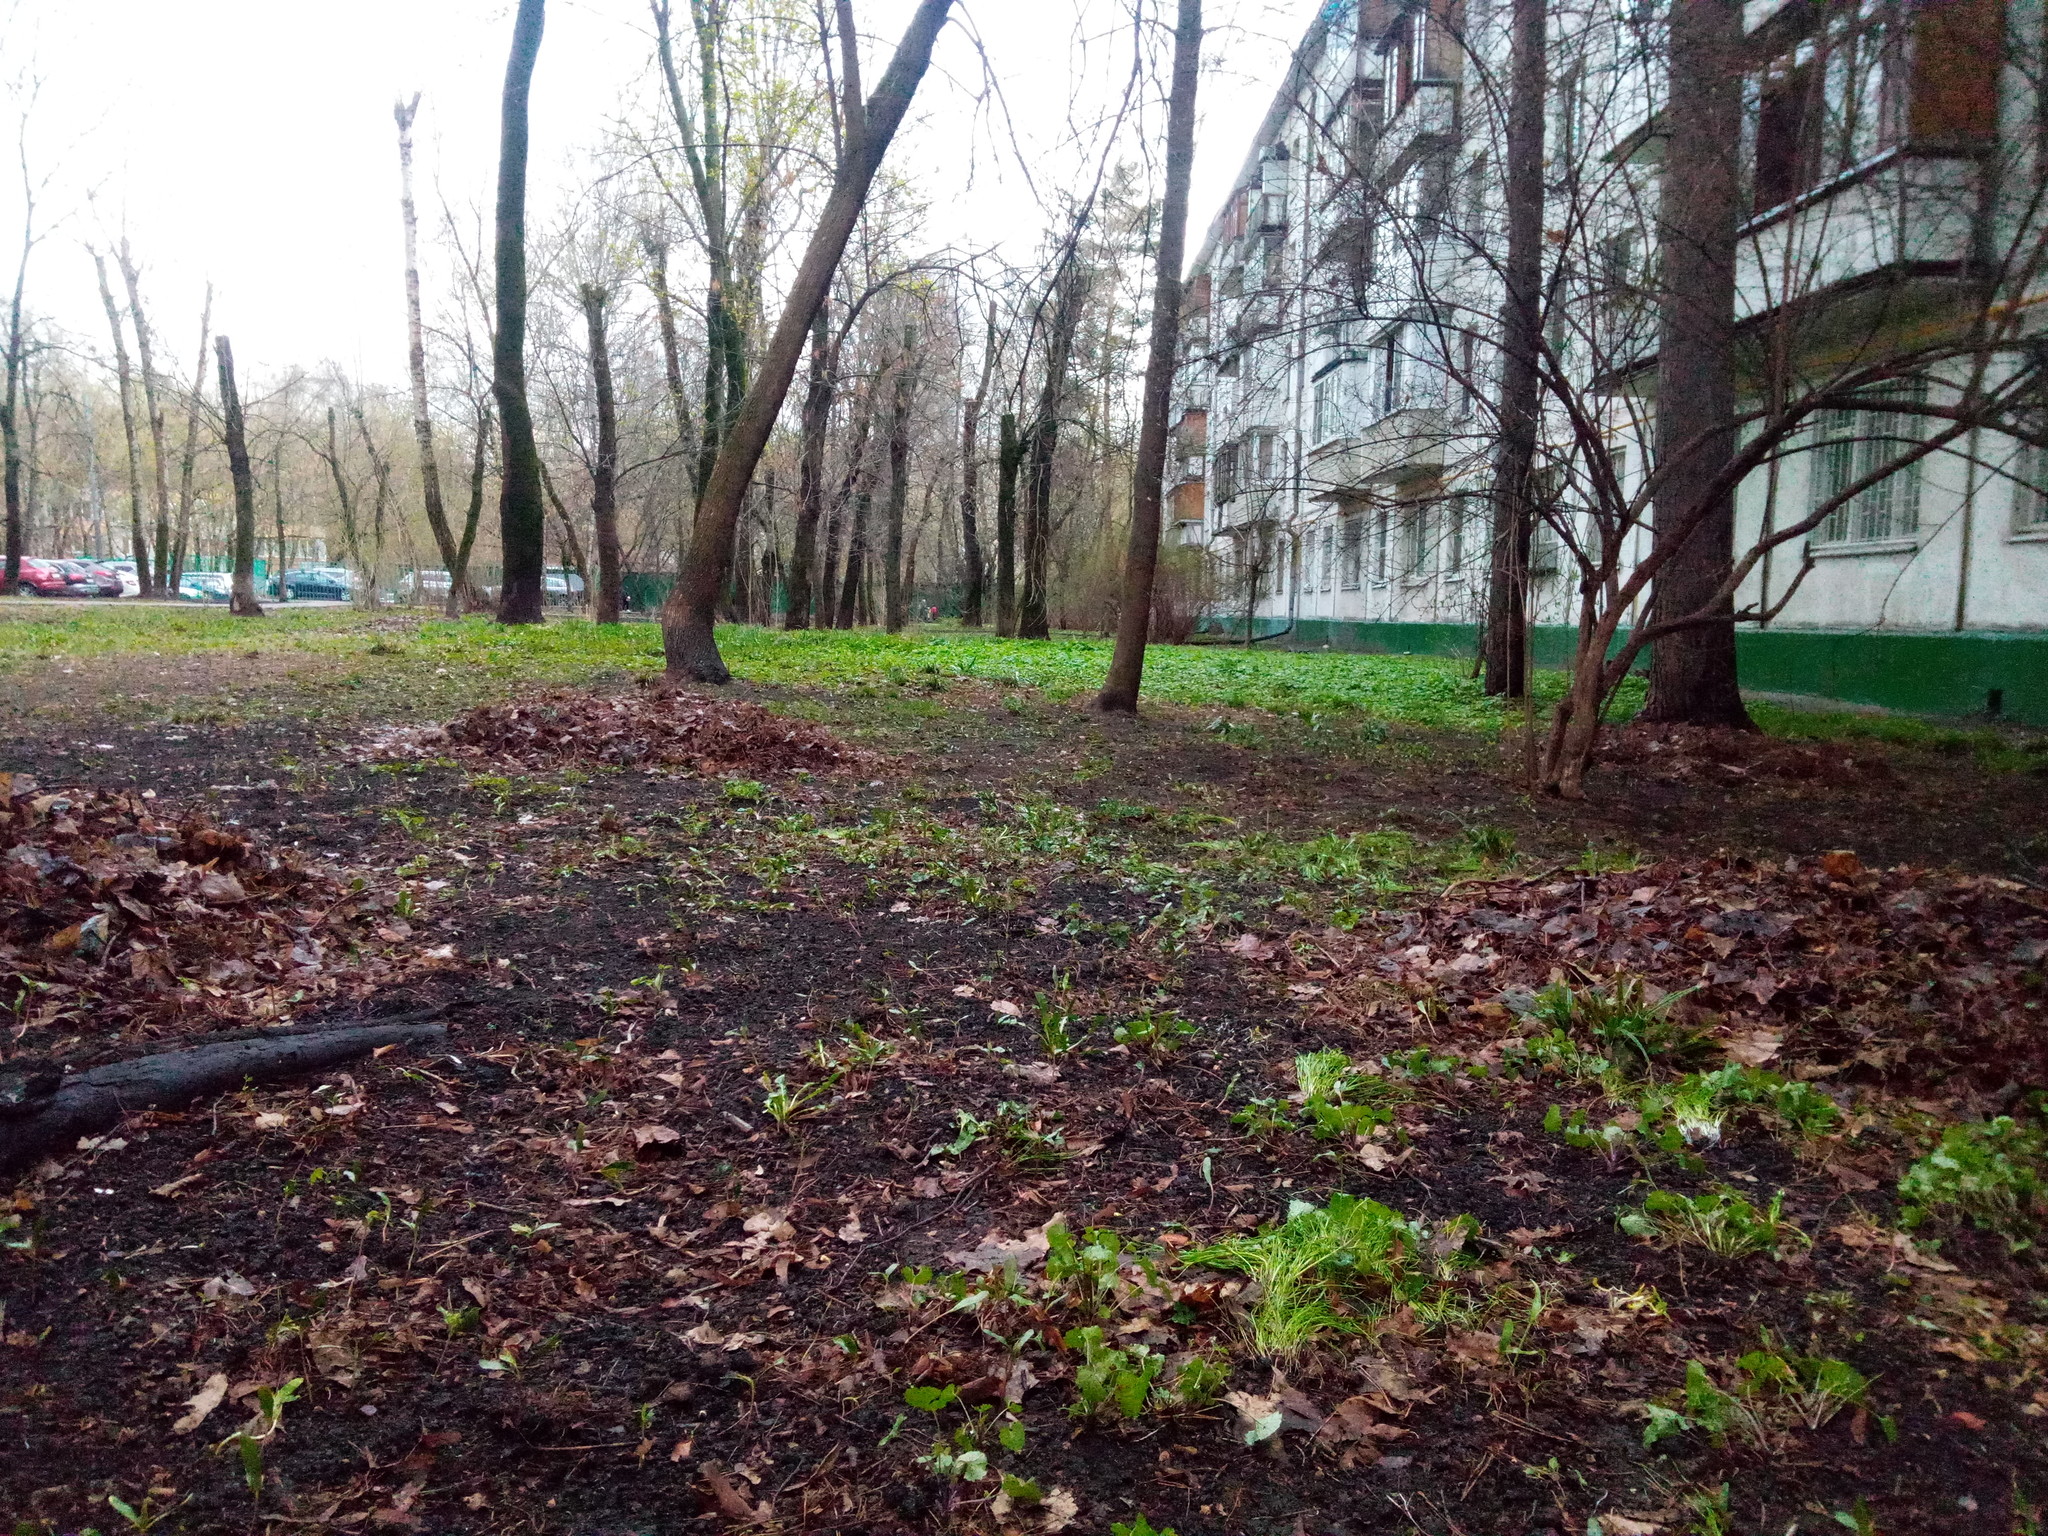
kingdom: Plantae
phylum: Tracheophyta
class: Liliopsida
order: Liliales
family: Liliaceae
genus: Gagea
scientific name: Gagea minima
